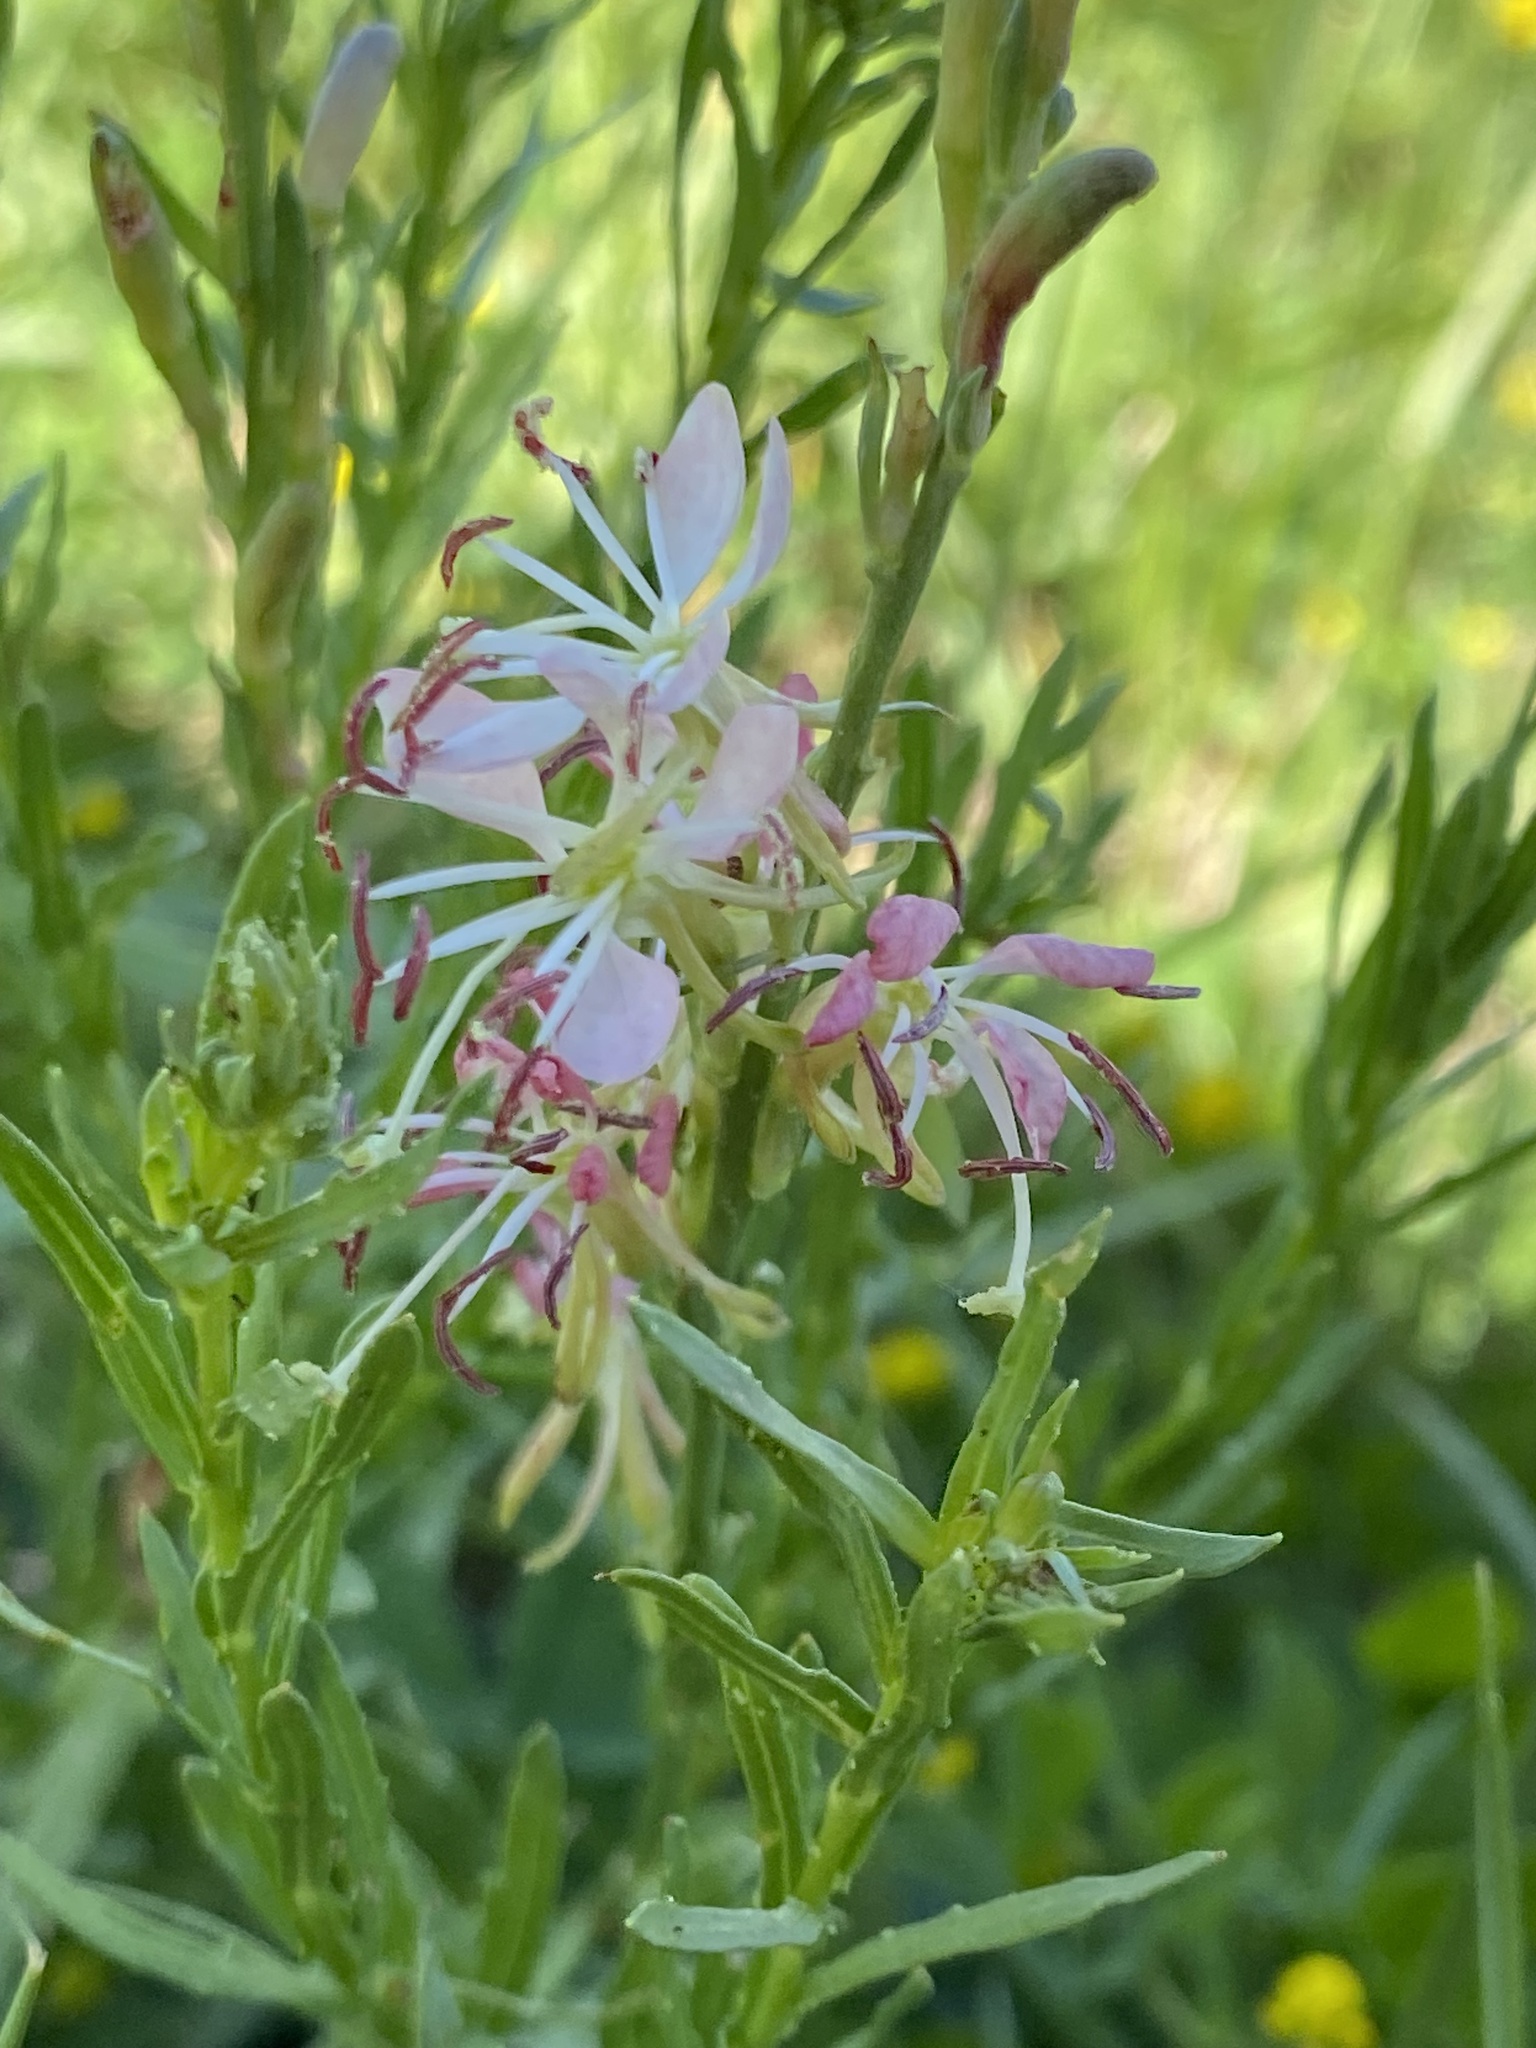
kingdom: Plantae
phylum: Tracheophyta
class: Magnoliopsida
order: Myrtales
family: Onagraceae
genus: Oenothera
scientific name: Oenothera suffrutescens
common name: Scarlet beeblossom
